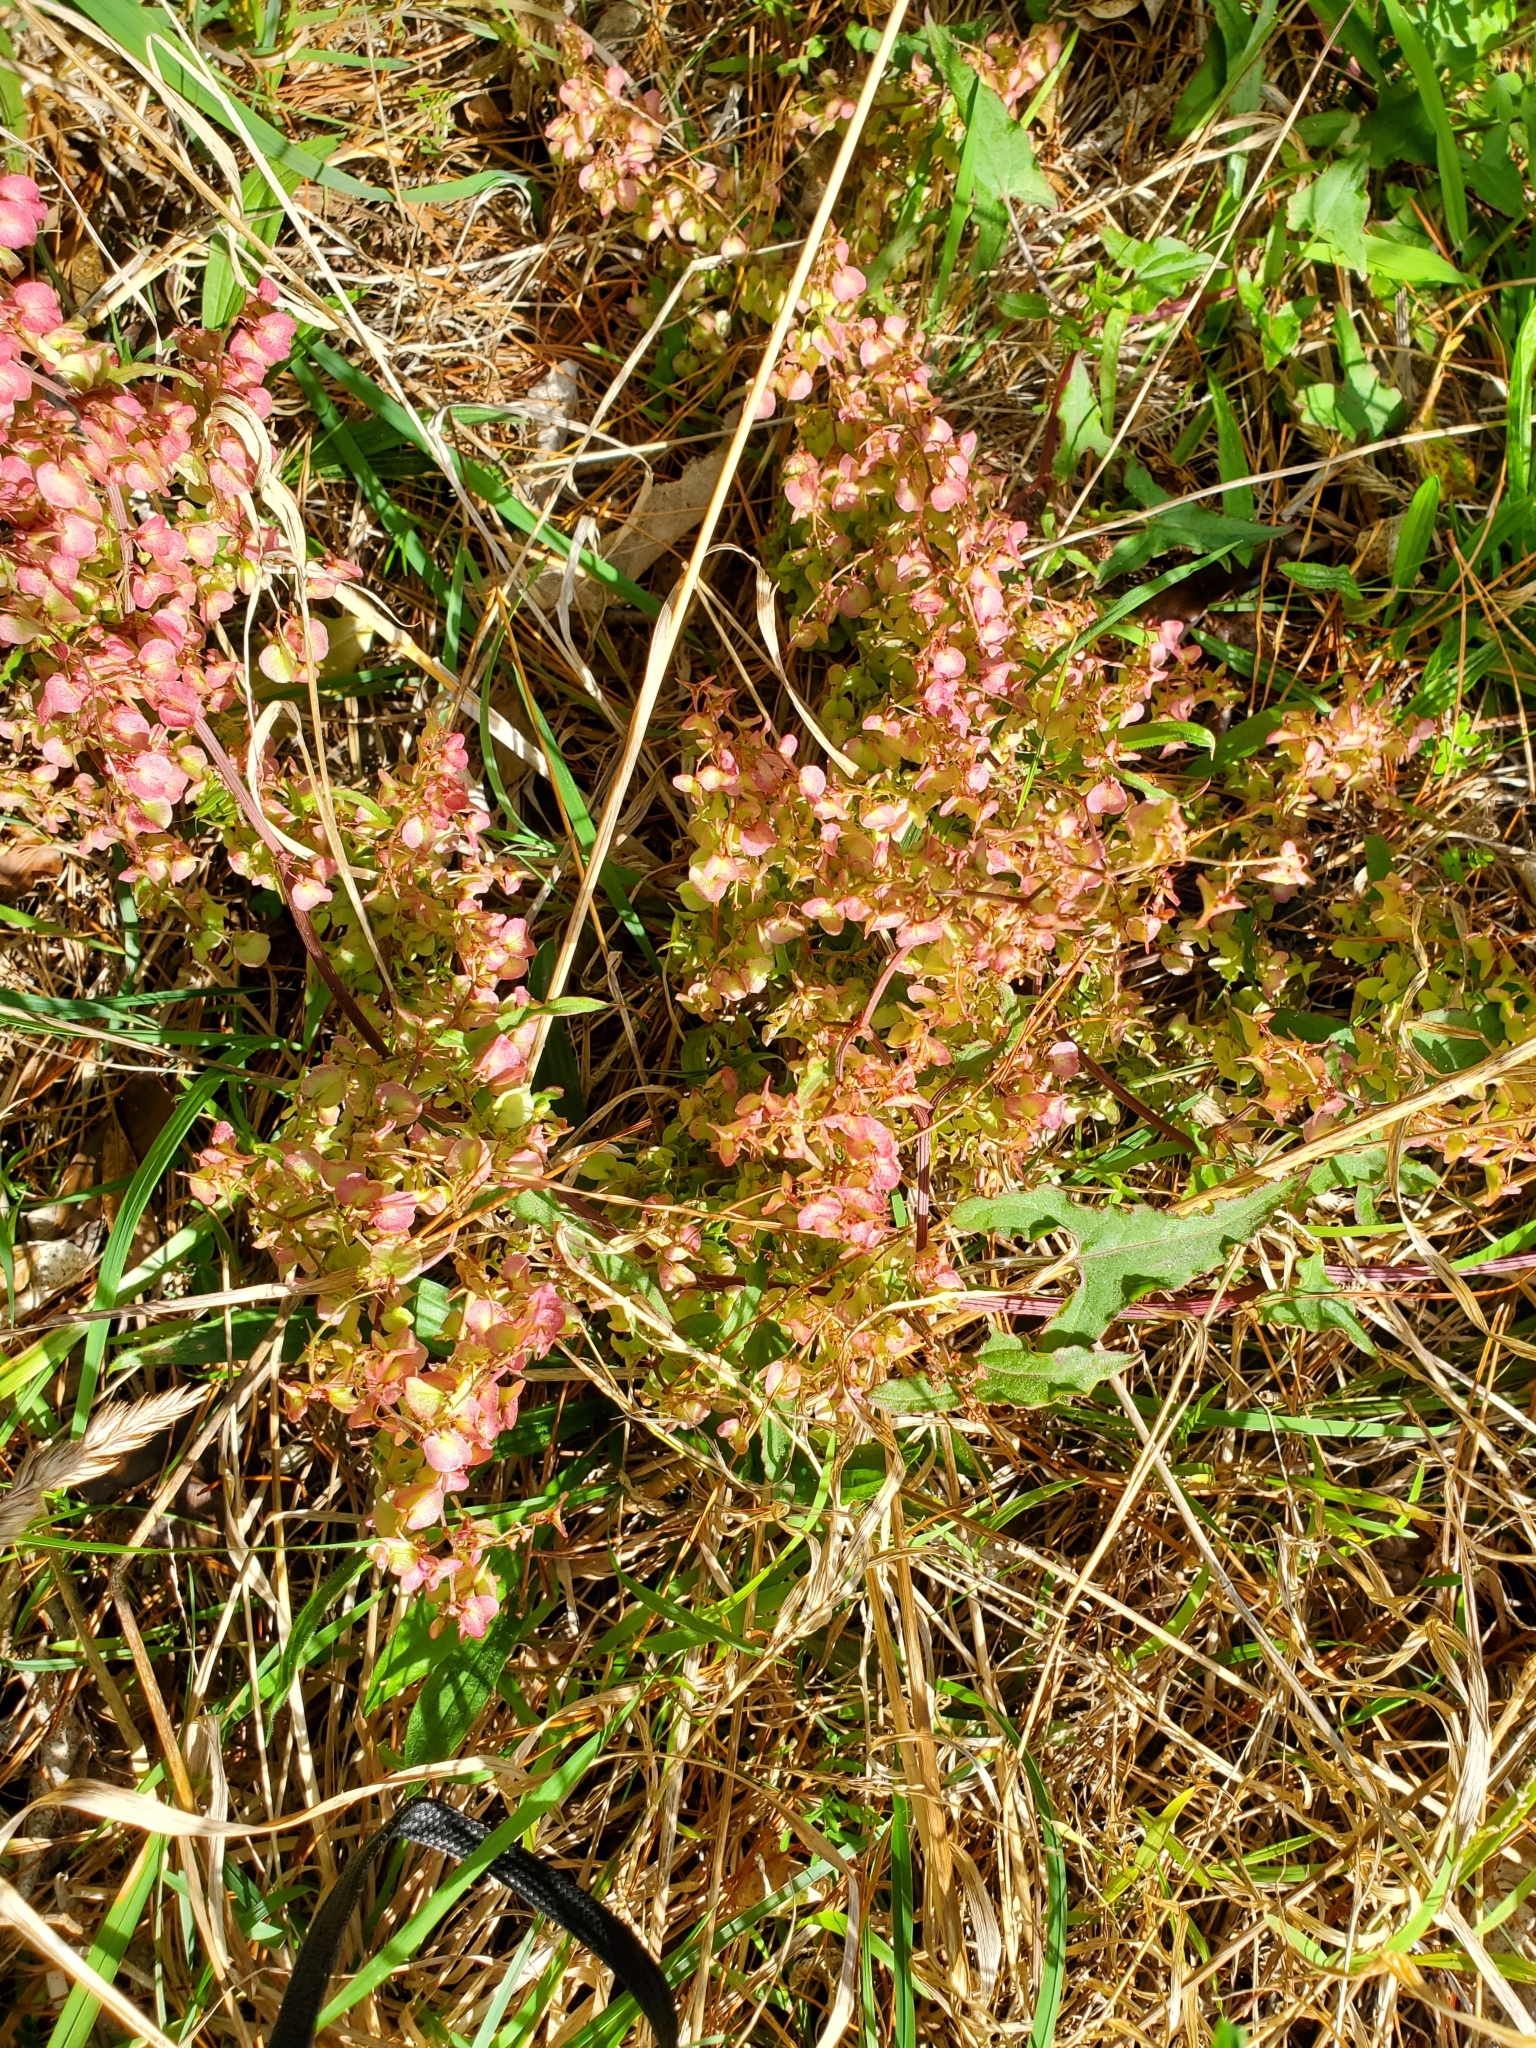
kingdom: Plantae
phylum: Tracheophyta
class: Magnoliopsida
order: Caryophyllales
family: Polygonaceae
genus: Rumex
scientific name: Rumex sagittatus
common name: Climbing dock
